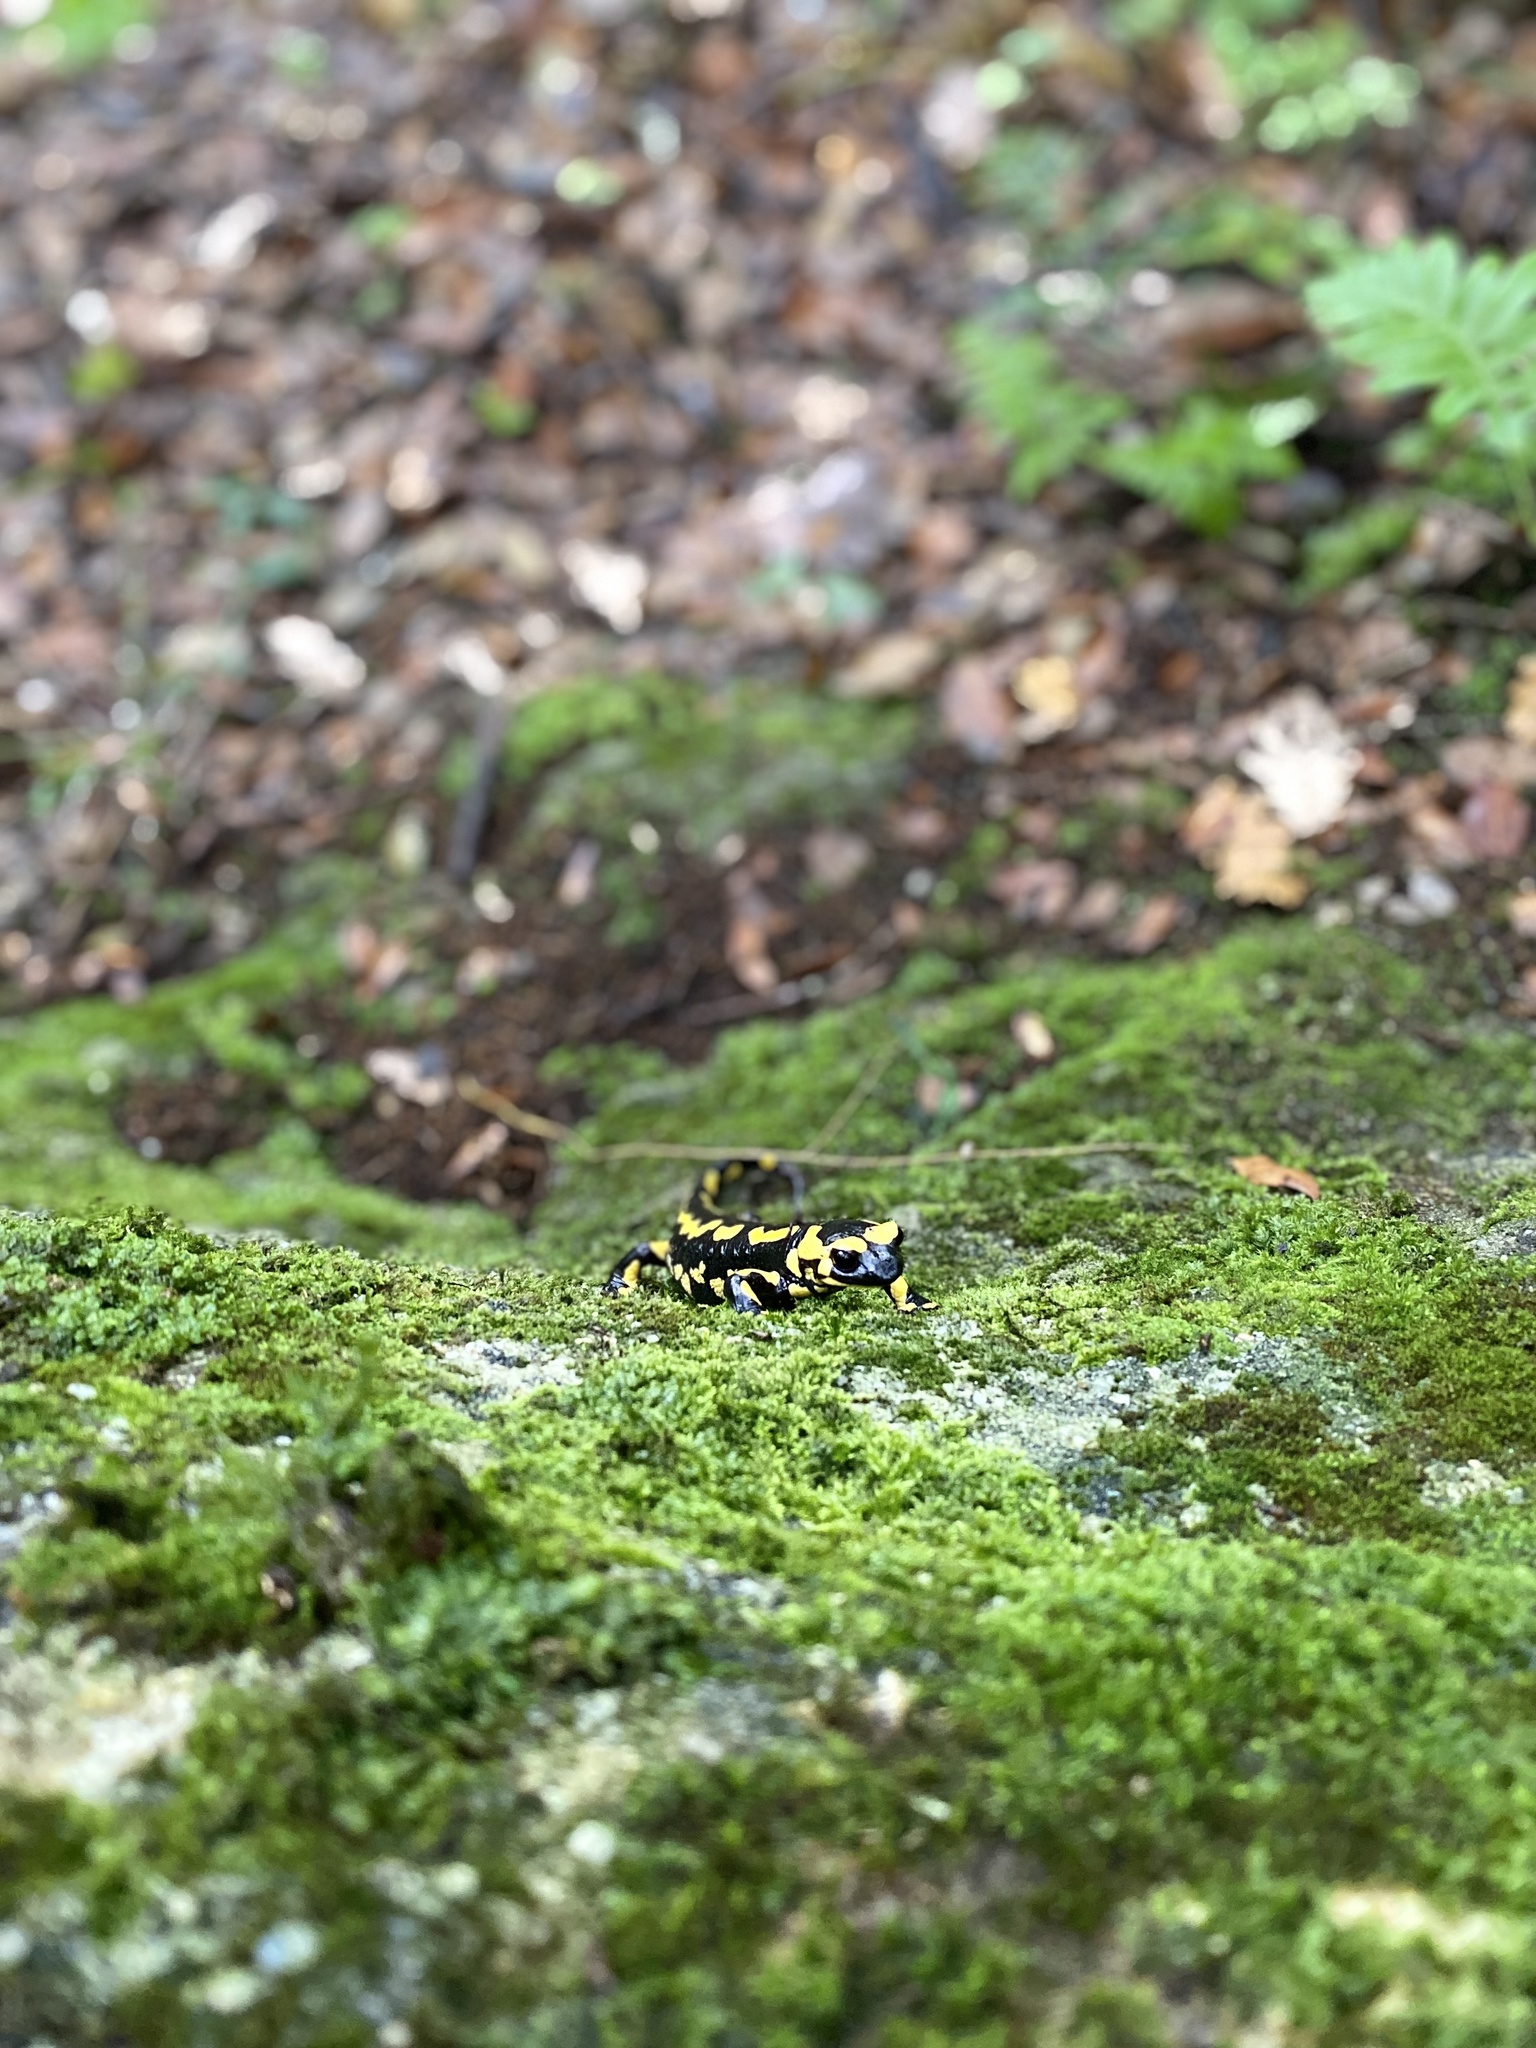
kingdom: Animalia
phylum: Chordata
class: Amphibia
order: Caudata
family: Salamandridae
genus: Salamandra
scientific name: Salamandra salamandra
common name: Fire salamander
